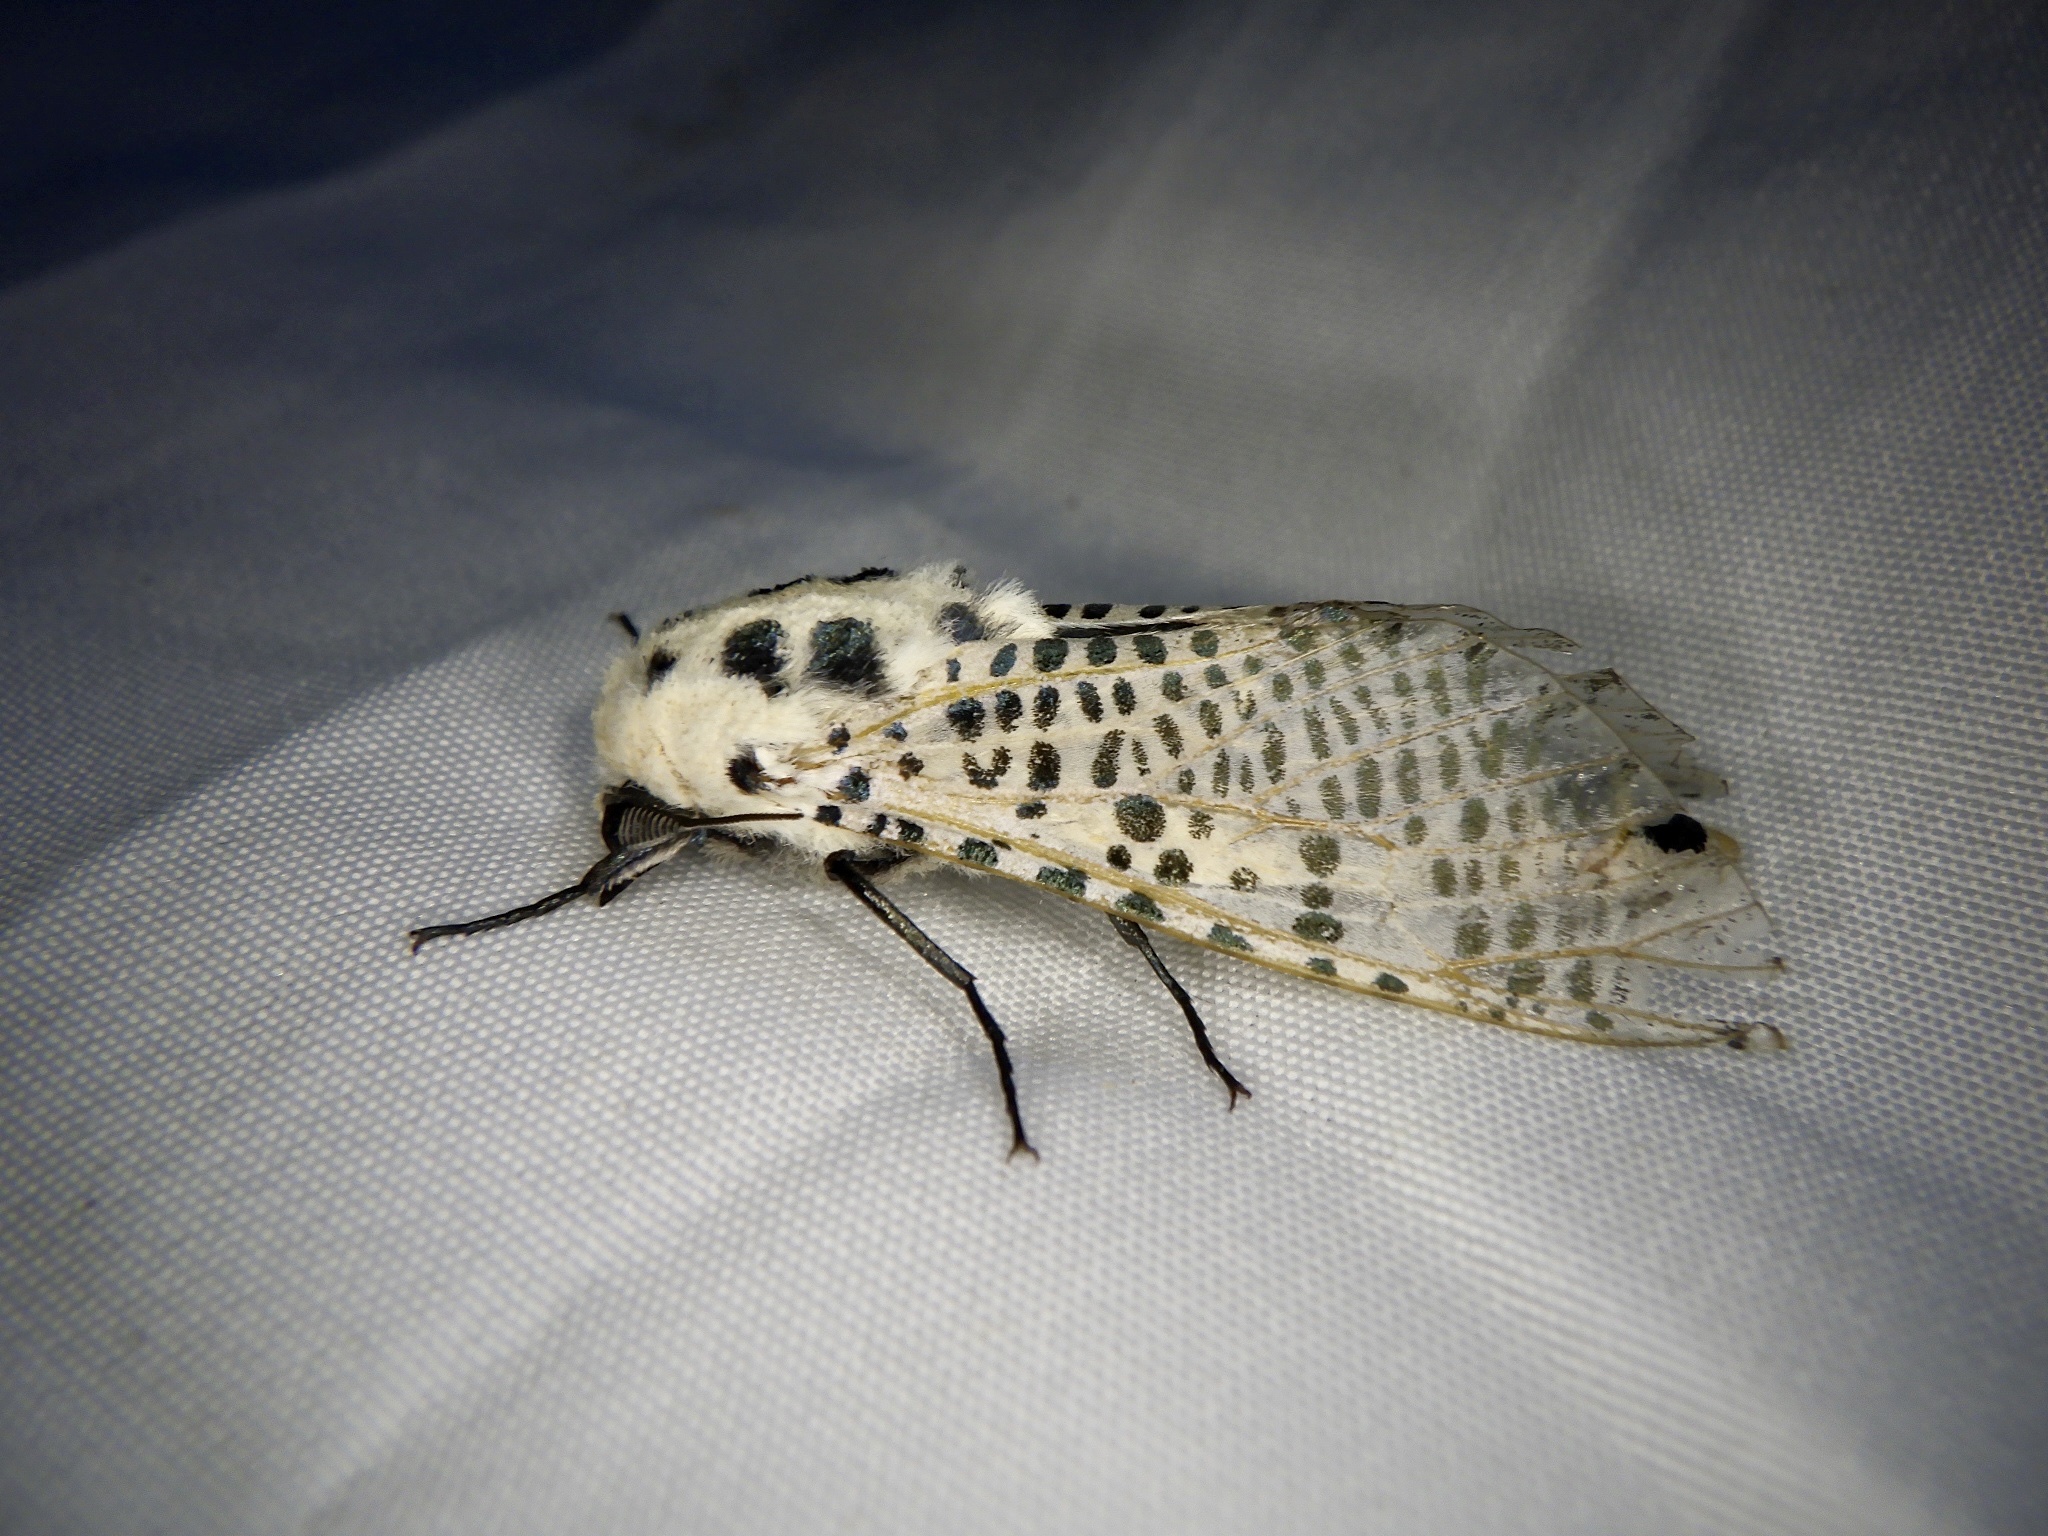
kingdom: Animalia
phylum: Arthropoda
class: Insecta
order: Lepidoptera
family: Cossidae
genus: Zeuzera
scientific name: Zeuzera multistrigata
